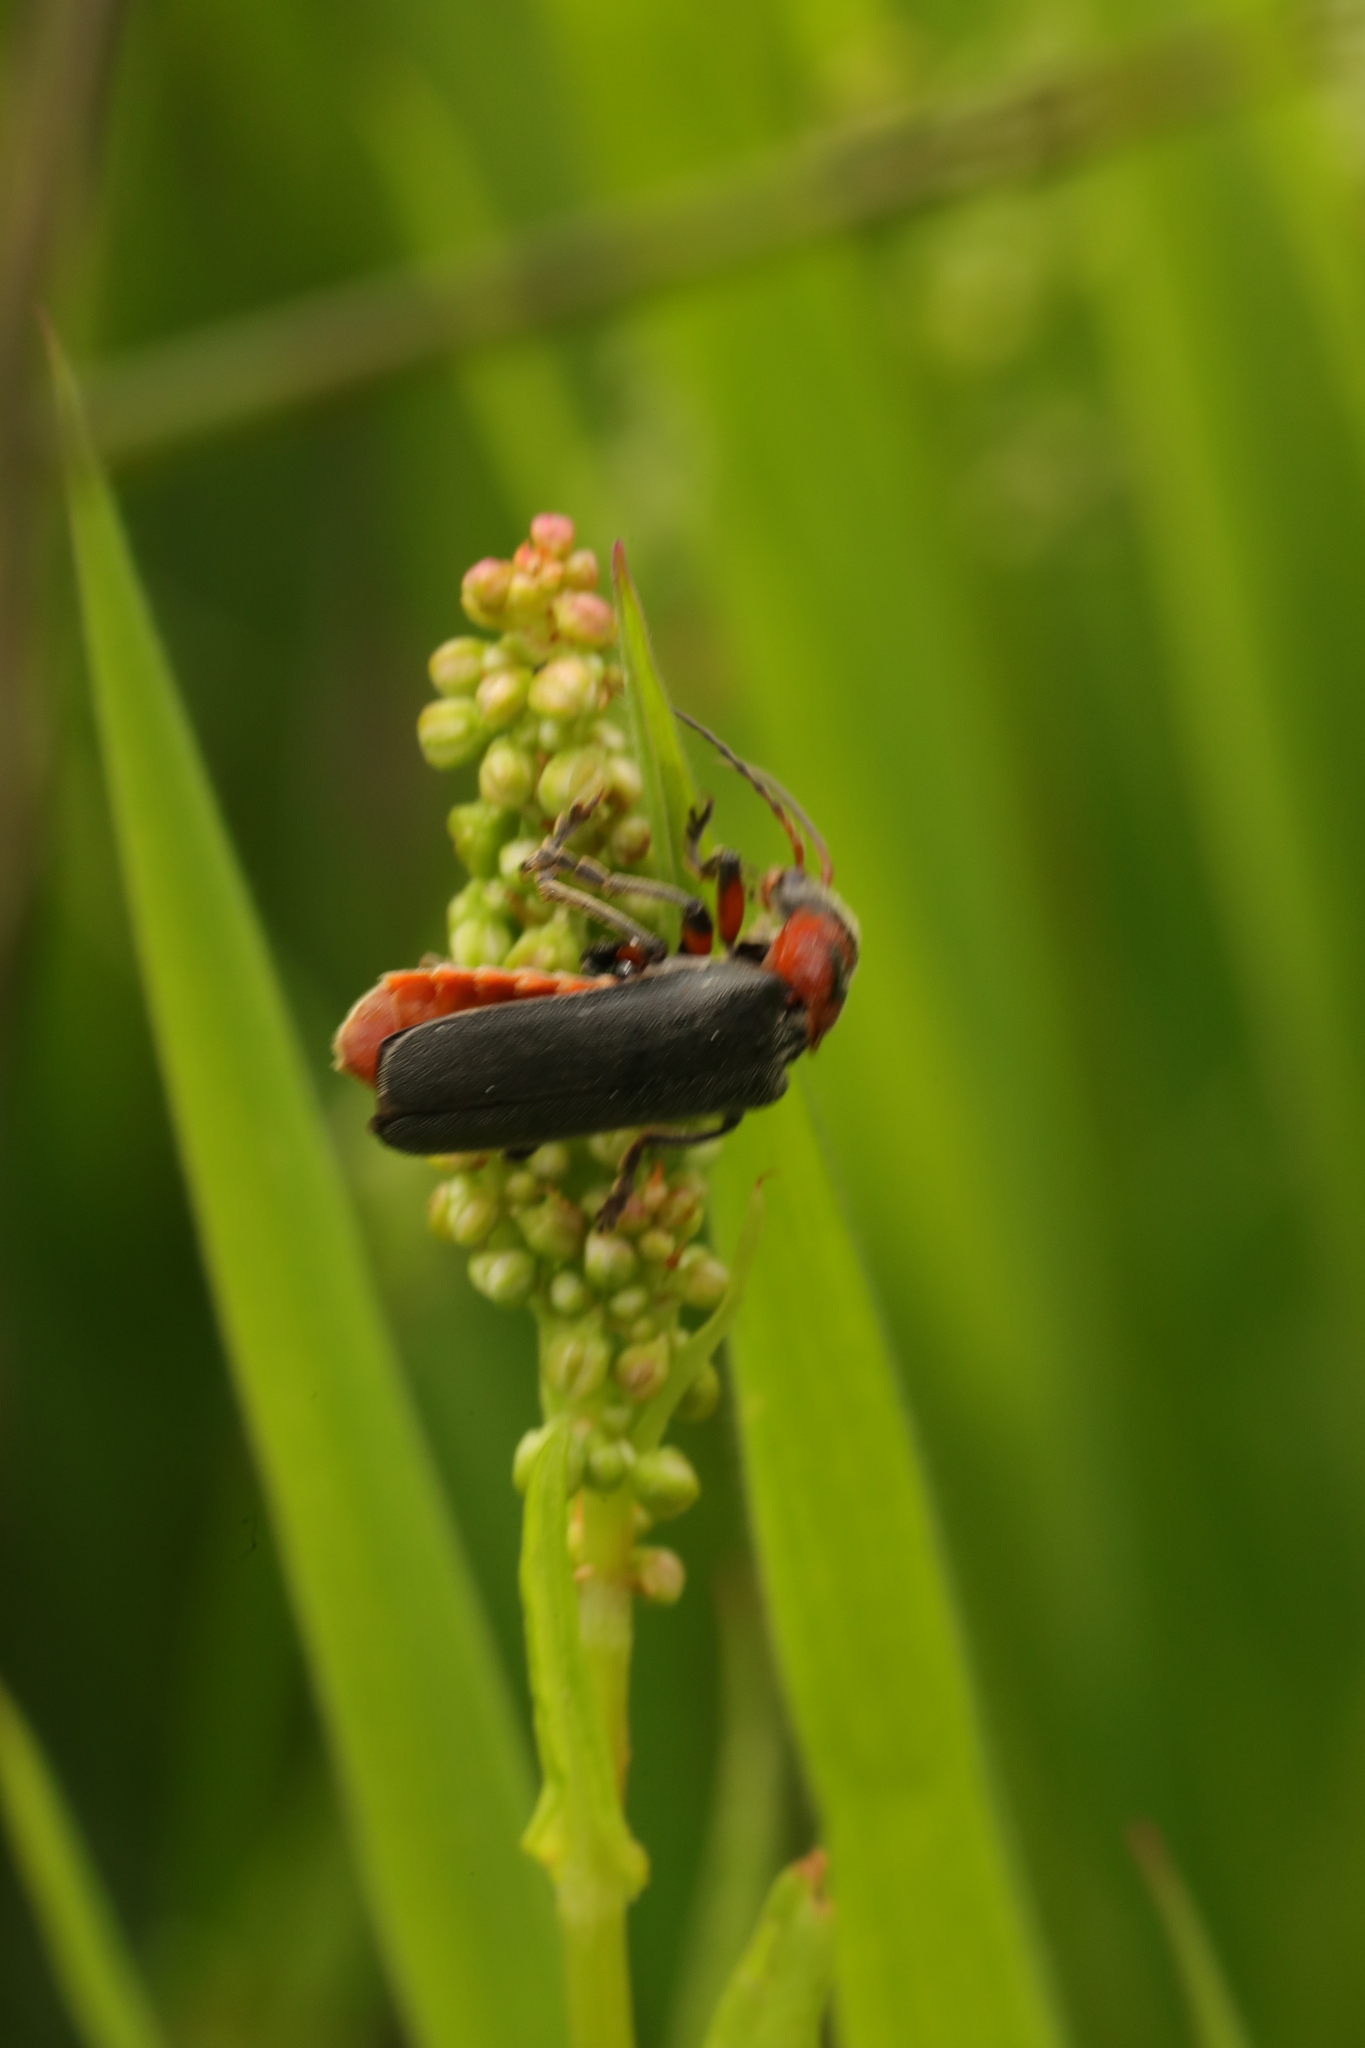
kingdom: Animalia
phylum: Arthropoda
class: Insecta
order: Coleoptera
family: Cantharidae
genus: Cantharis
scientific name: Cantharis rustica
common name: Soldier beetle
